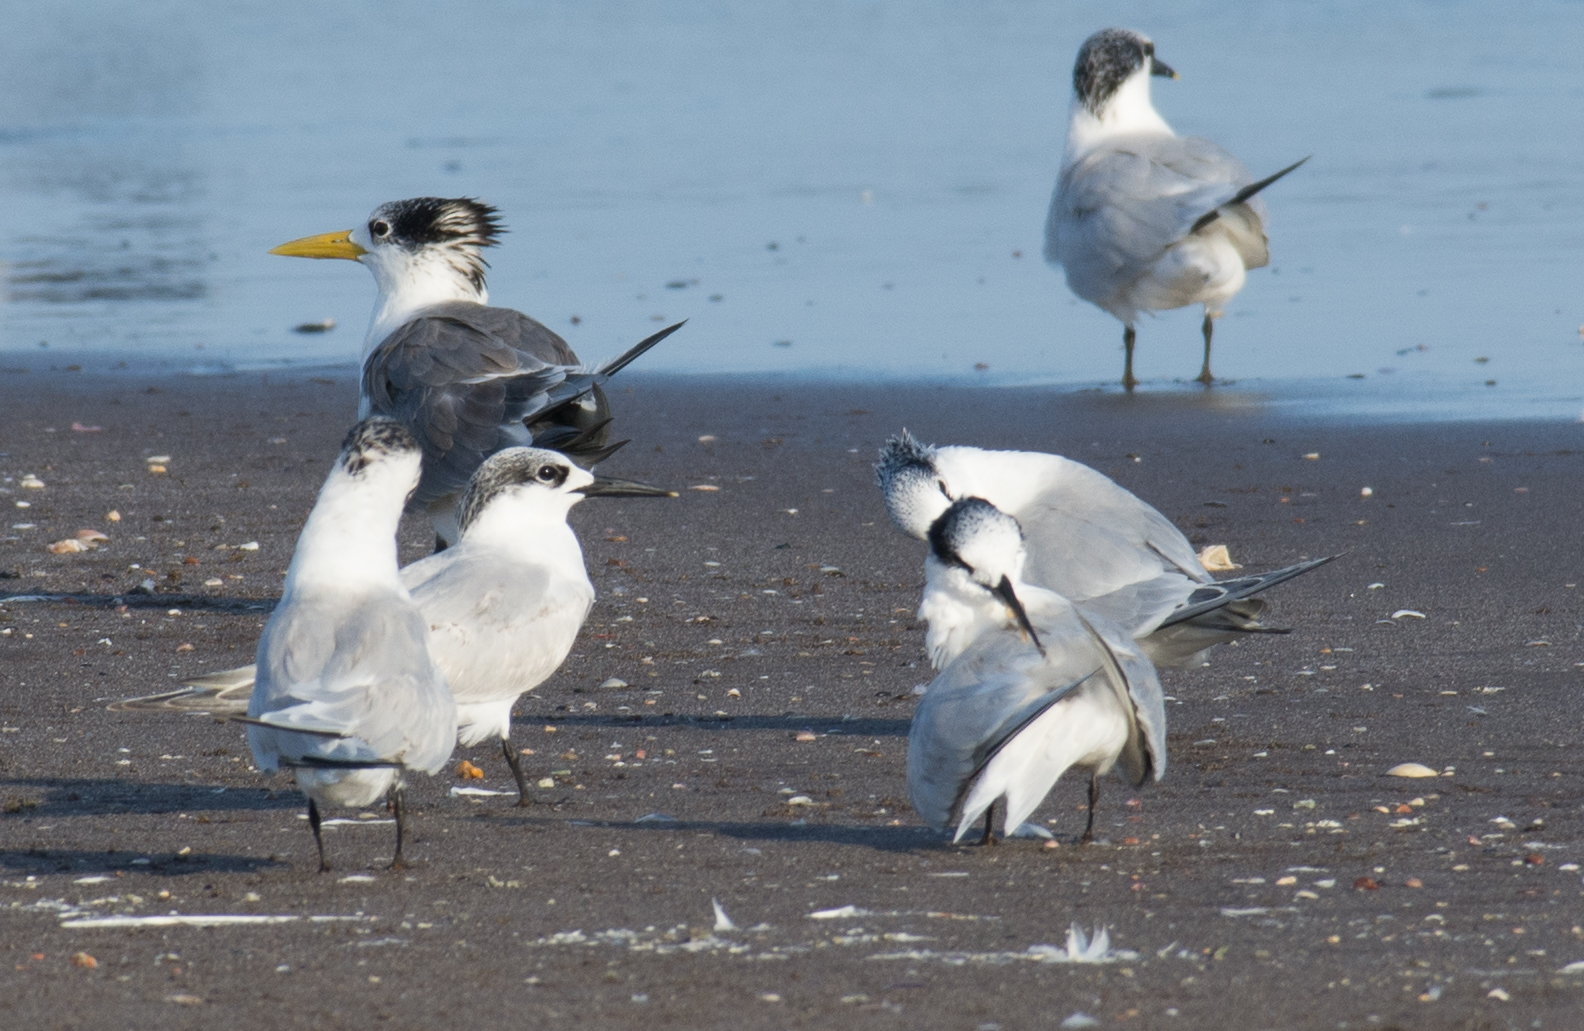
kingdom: Animalia
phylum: Chordata
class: Aves
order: Charadriiformes
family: Laridae
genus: Thalasseus
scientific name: Thalasseus sandvicensis
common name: Sandwich tern
